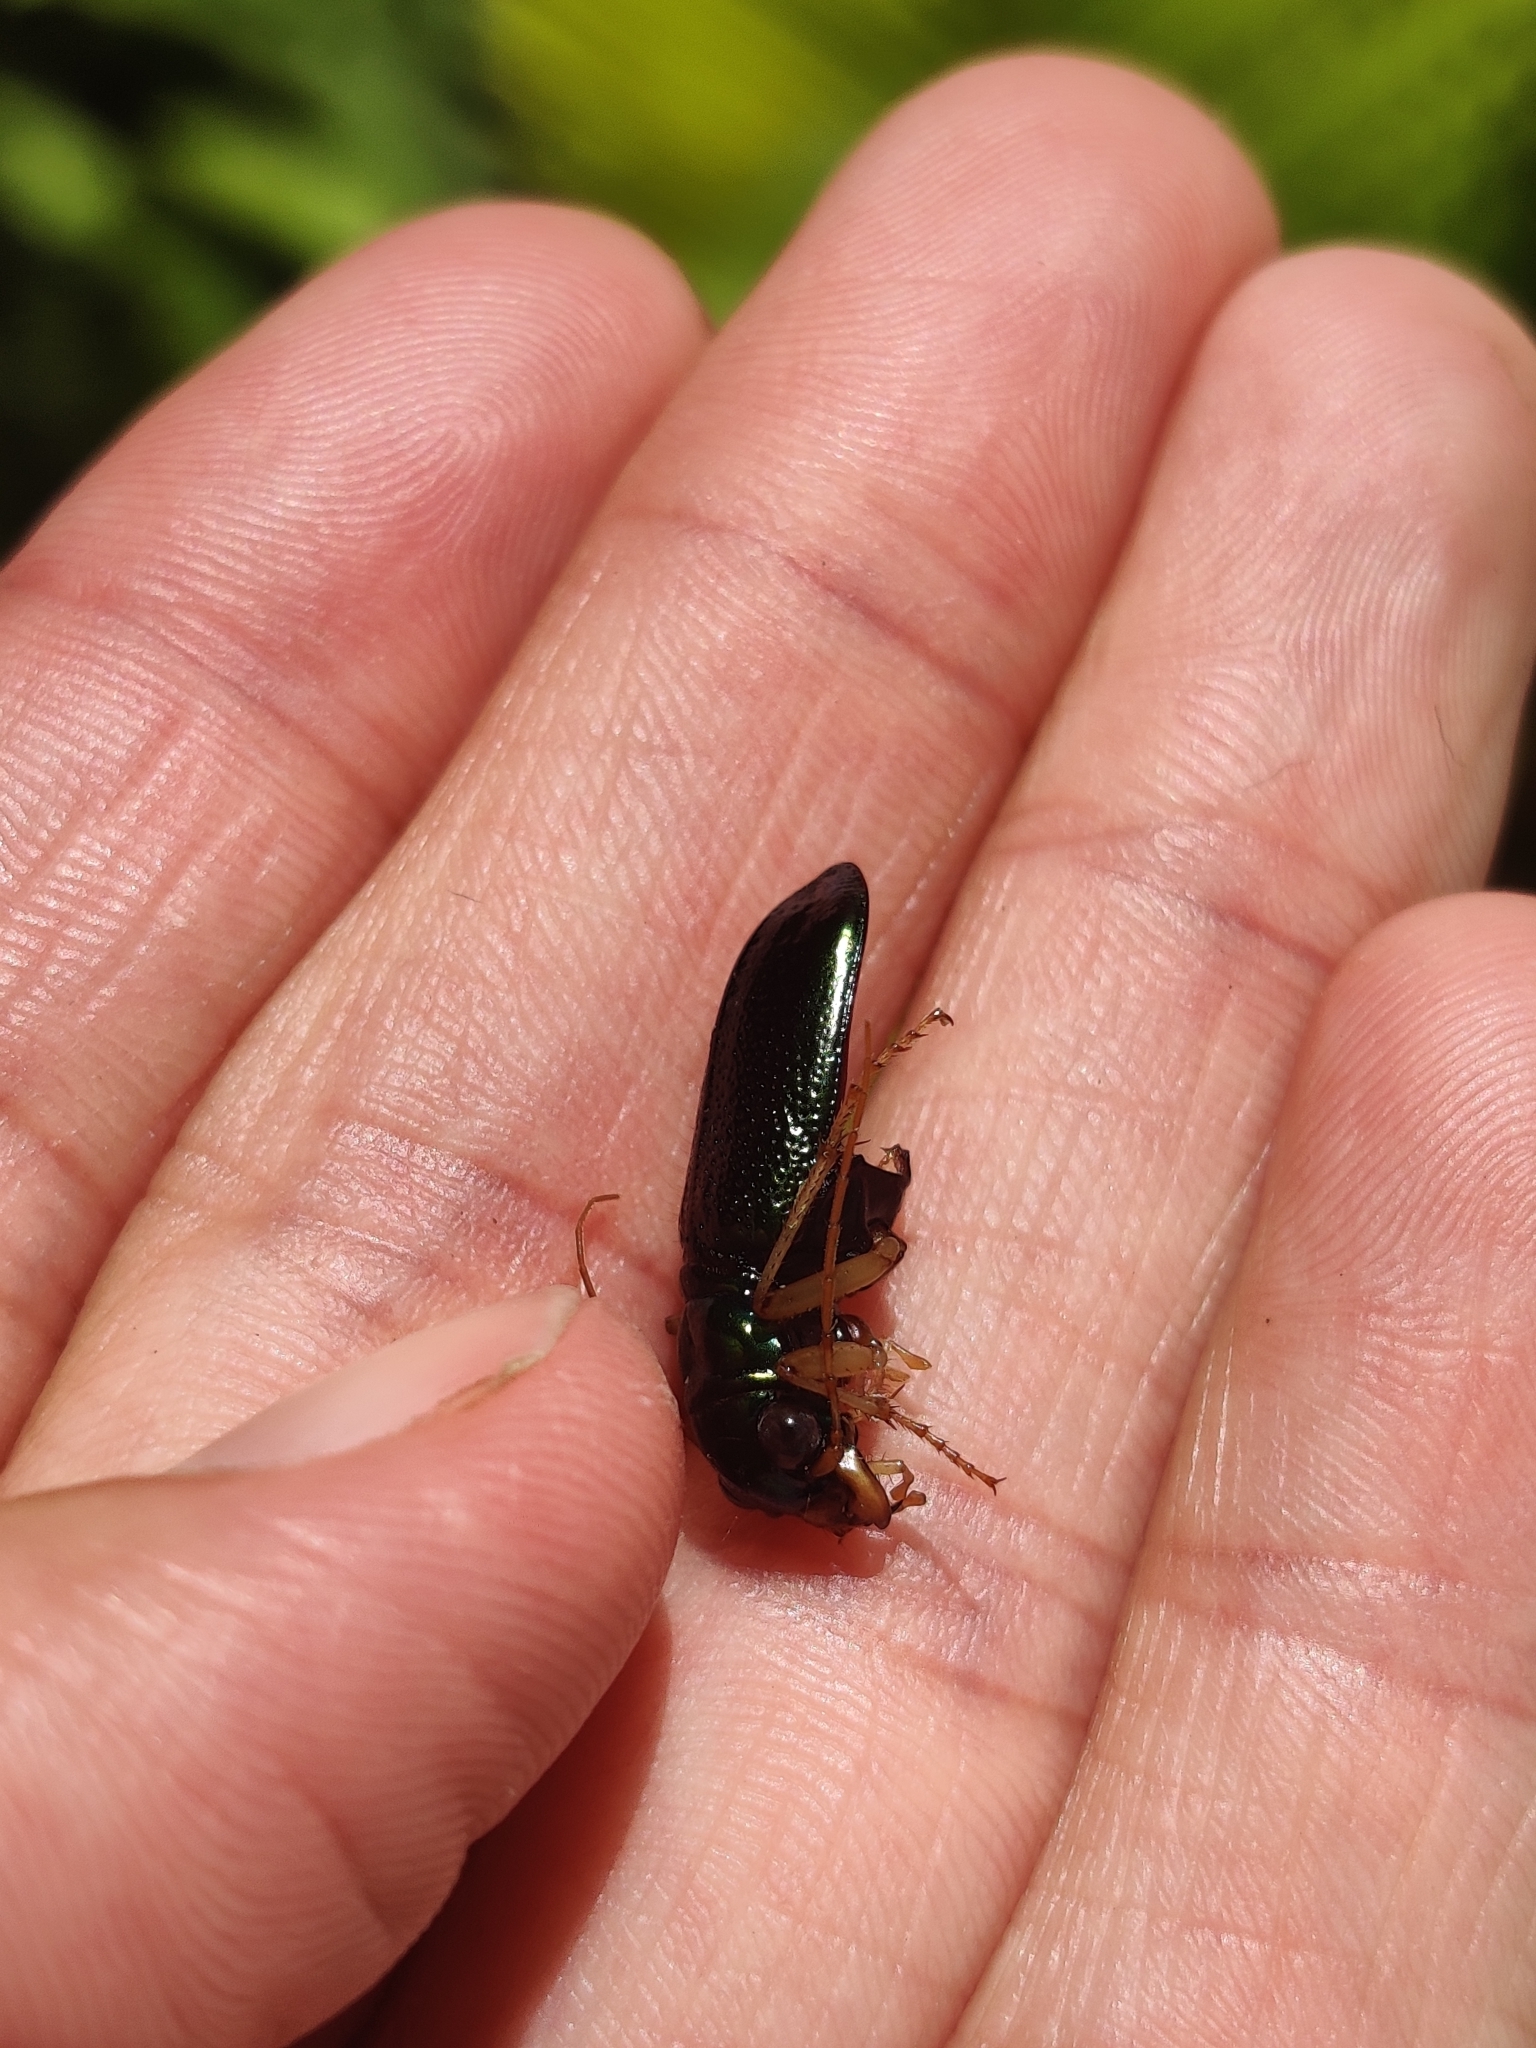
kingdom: Animalia
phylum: Arthropoda
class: Insecta
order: Coleoptera
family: Carabidae
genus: Tetracha
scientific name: Tetracha virginica
